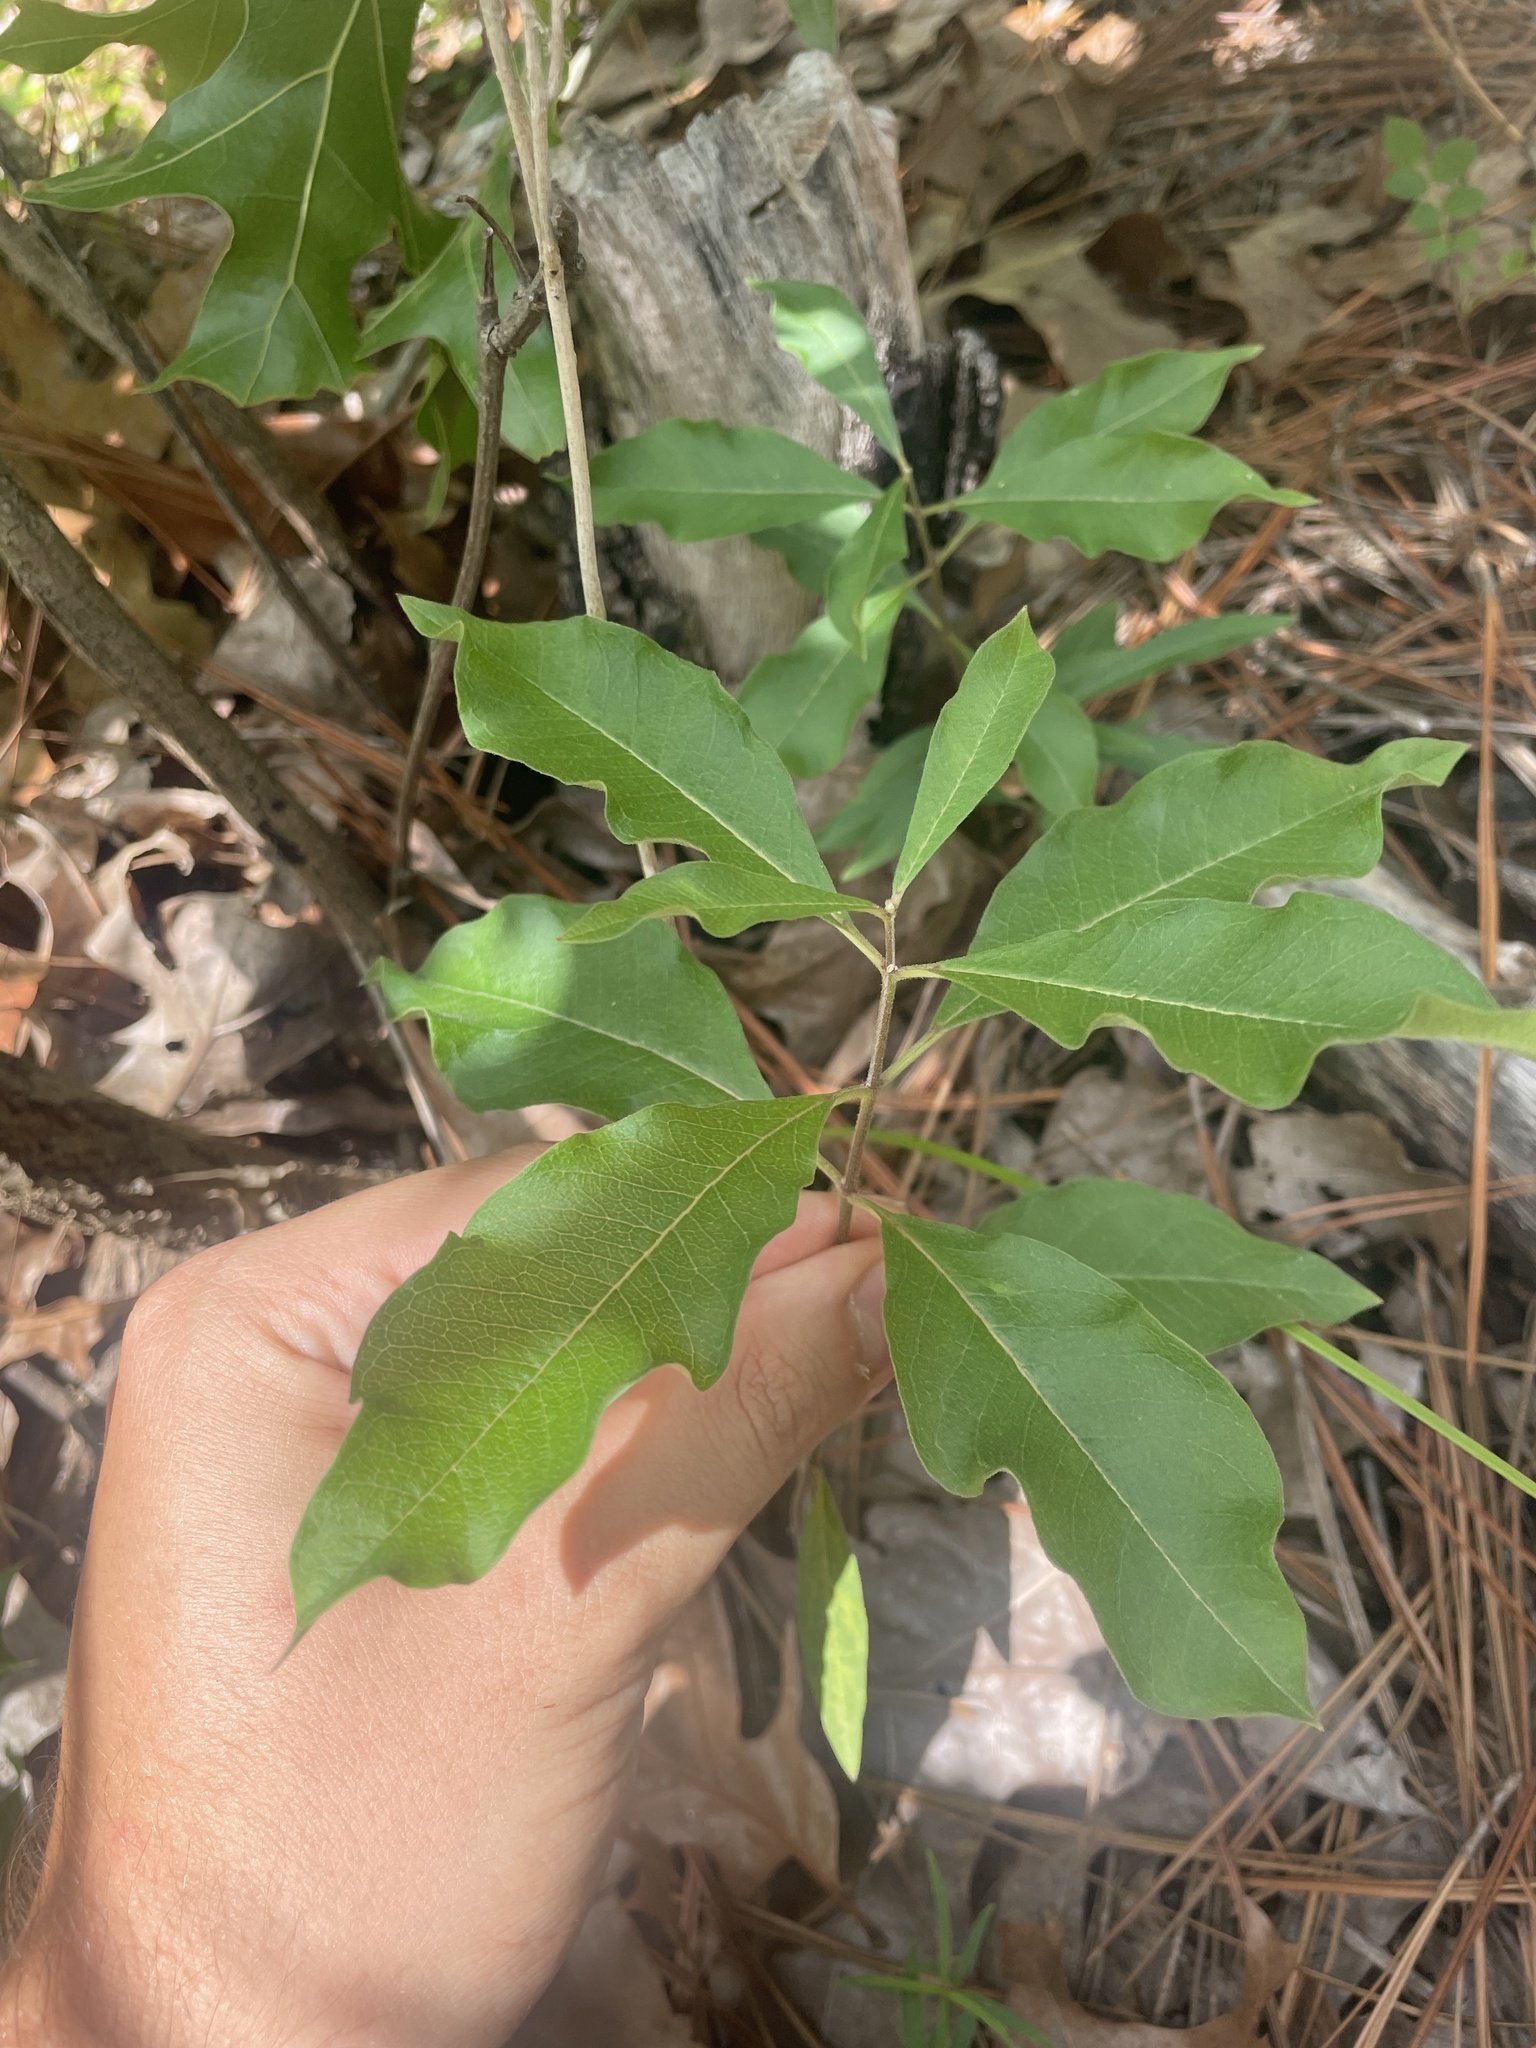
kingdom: Plantae
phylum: Tracheophyta
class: Magnoliopsida
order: Gentianales
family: Apocynaceae
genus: Asclepias
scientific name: Asclepias tomentosa
